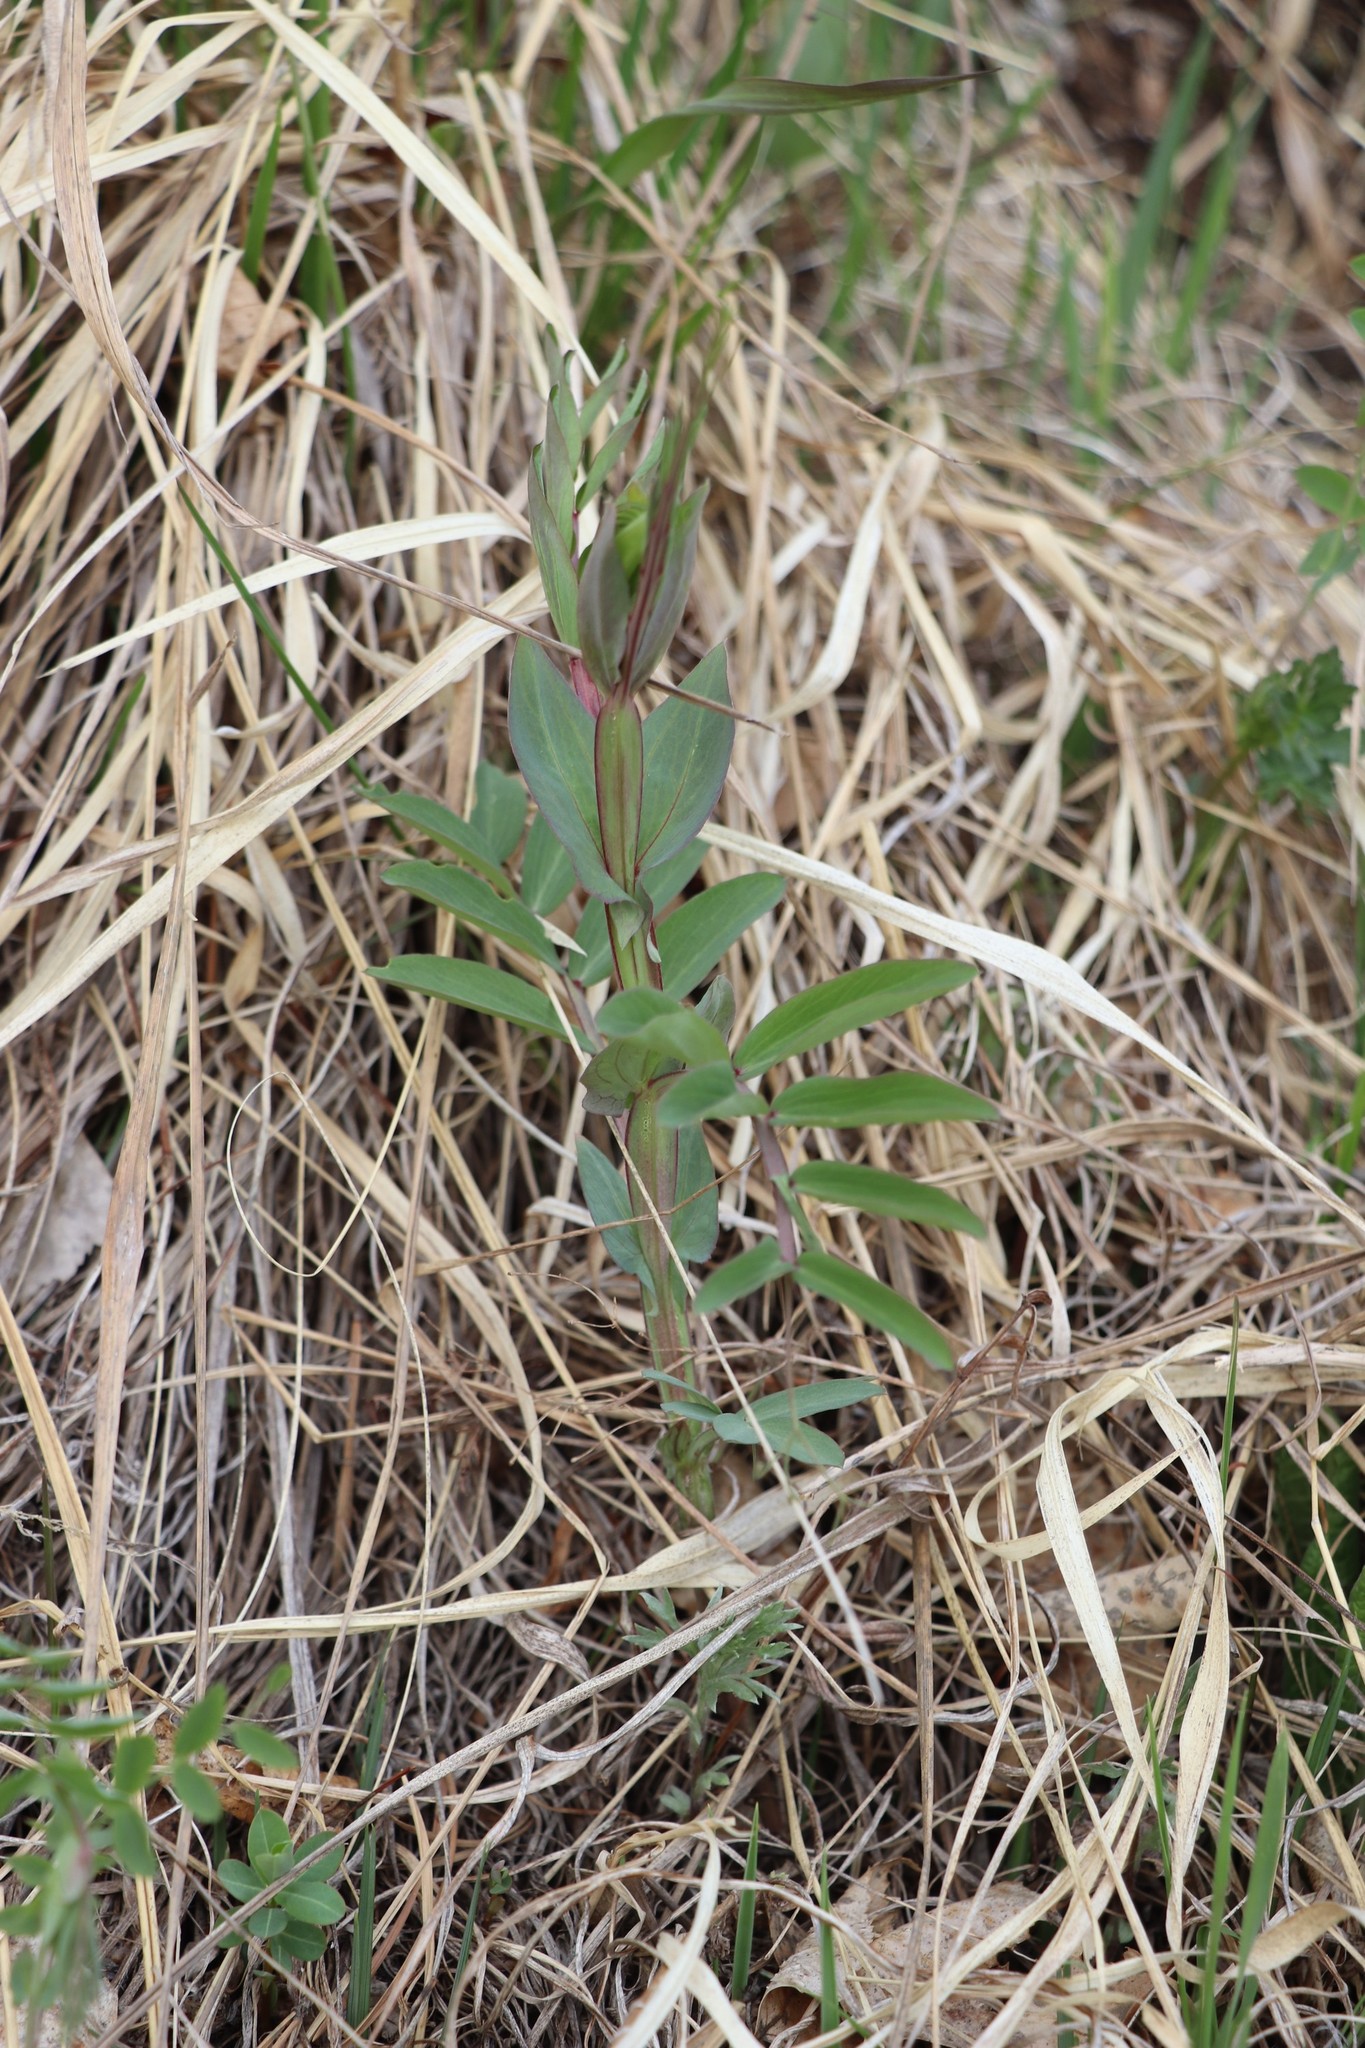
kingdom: Plantae
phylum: Tracheophyta
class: Magnoliopsida
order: Fabales
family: Fabaceae
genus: Lathyrus
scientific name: Lathyrus pisiformis
